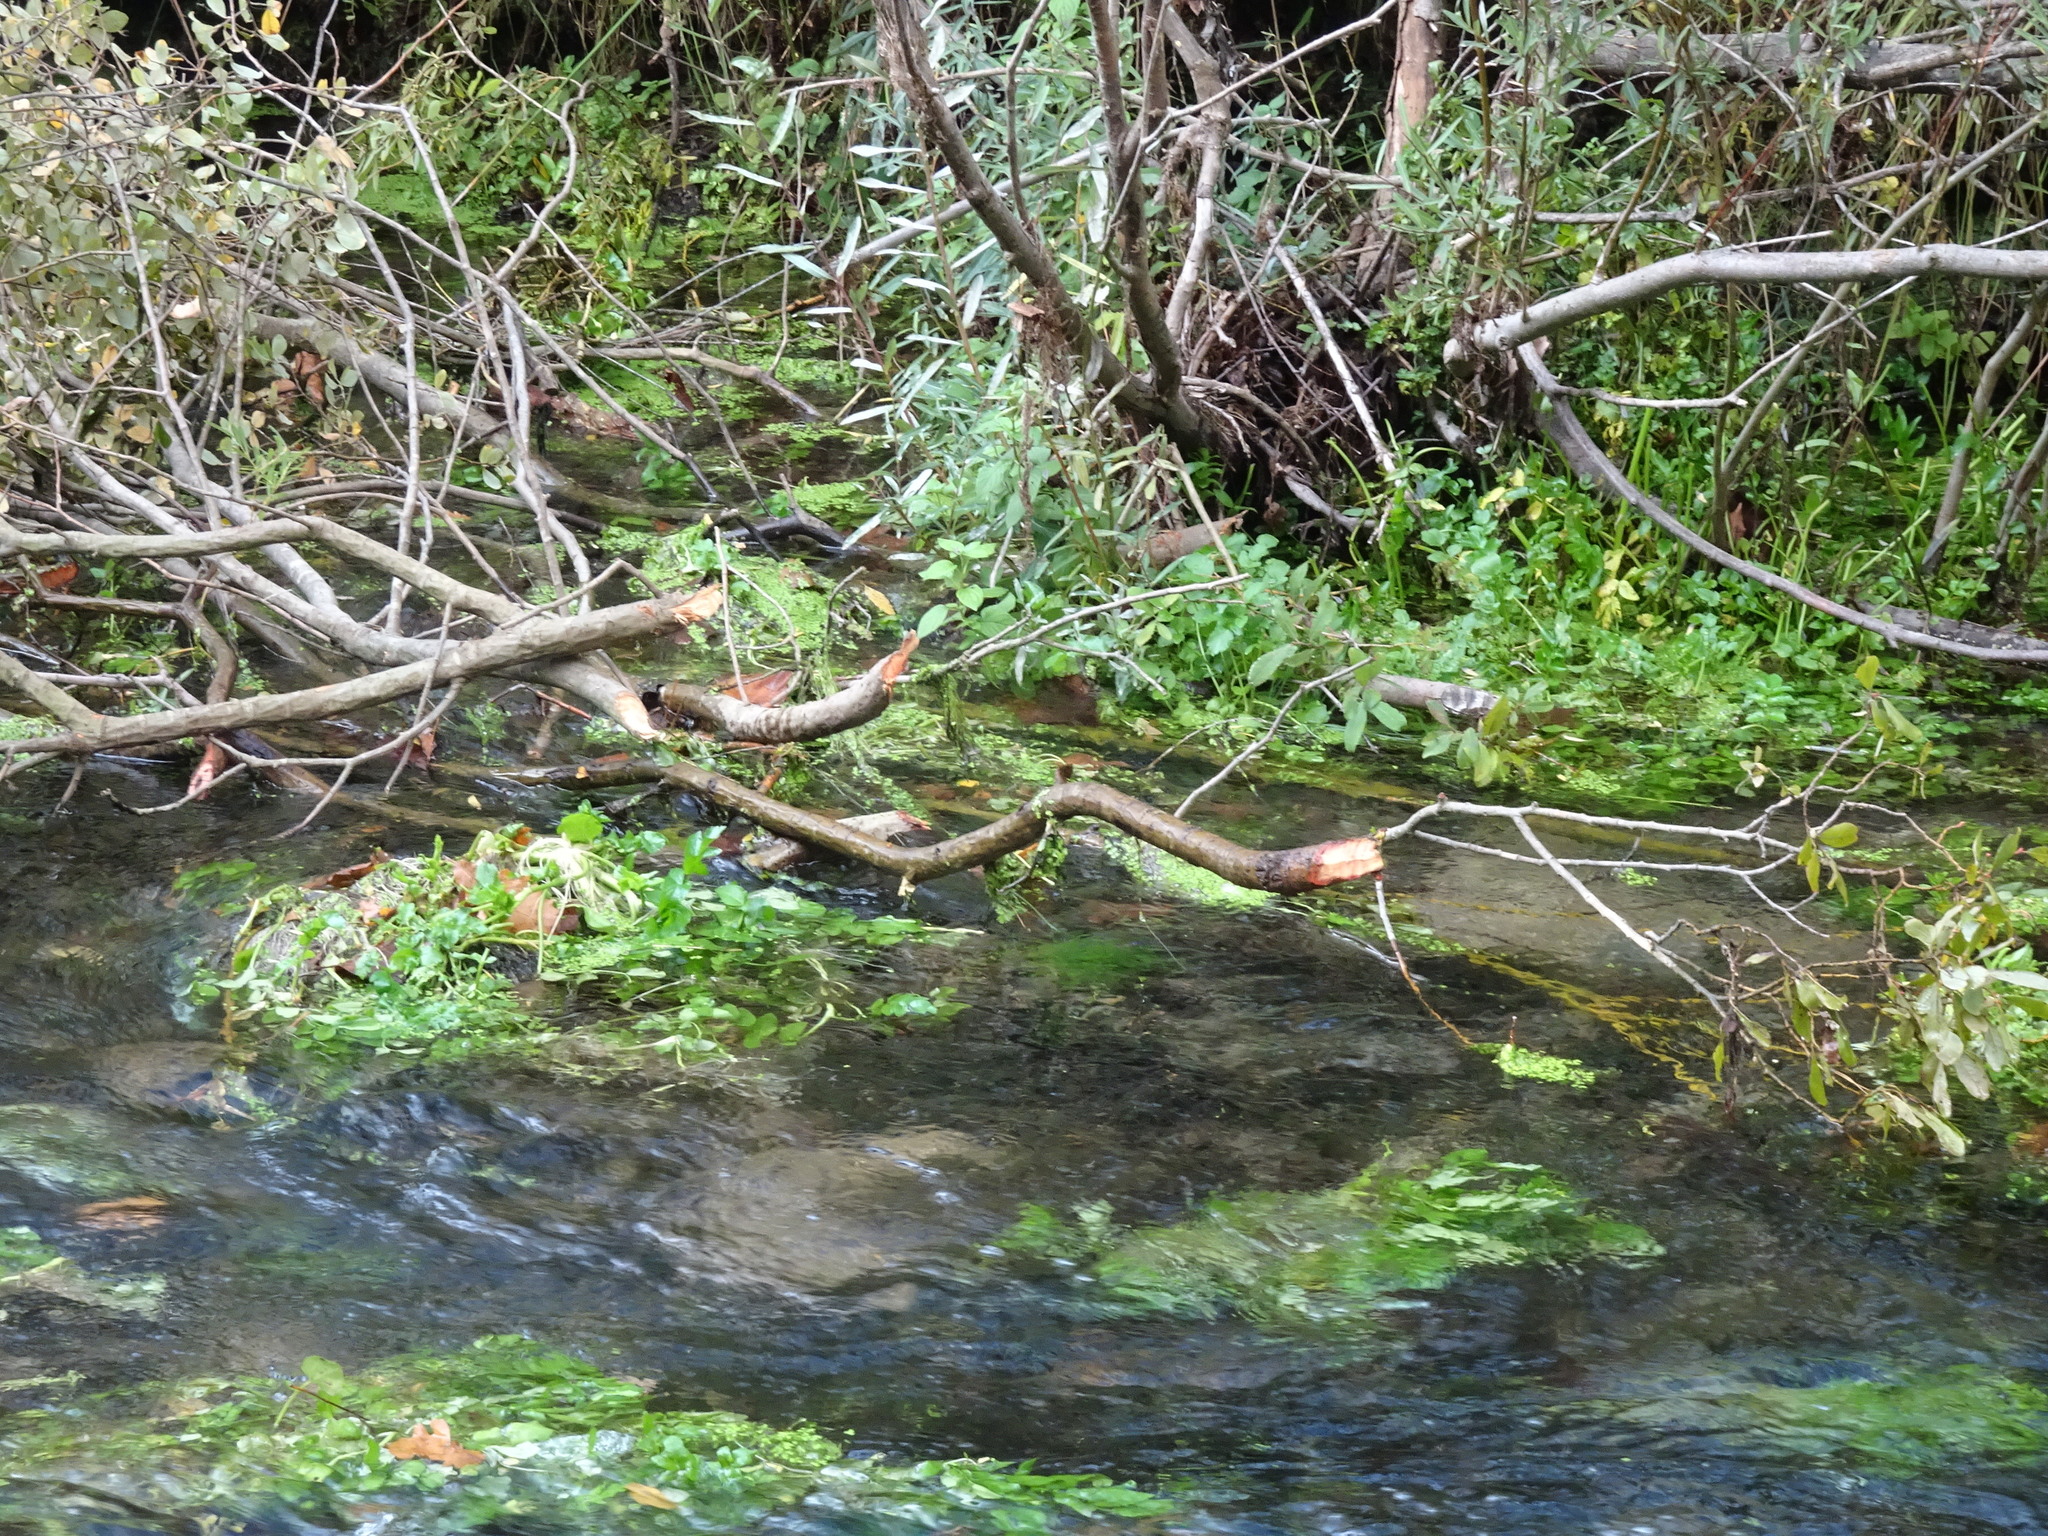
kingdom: Animalia
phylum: Chordata
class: Mammalia
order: Rodentia
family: Castoridae
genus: Castor
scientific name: Castor fiber
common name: Eurasian beaver
